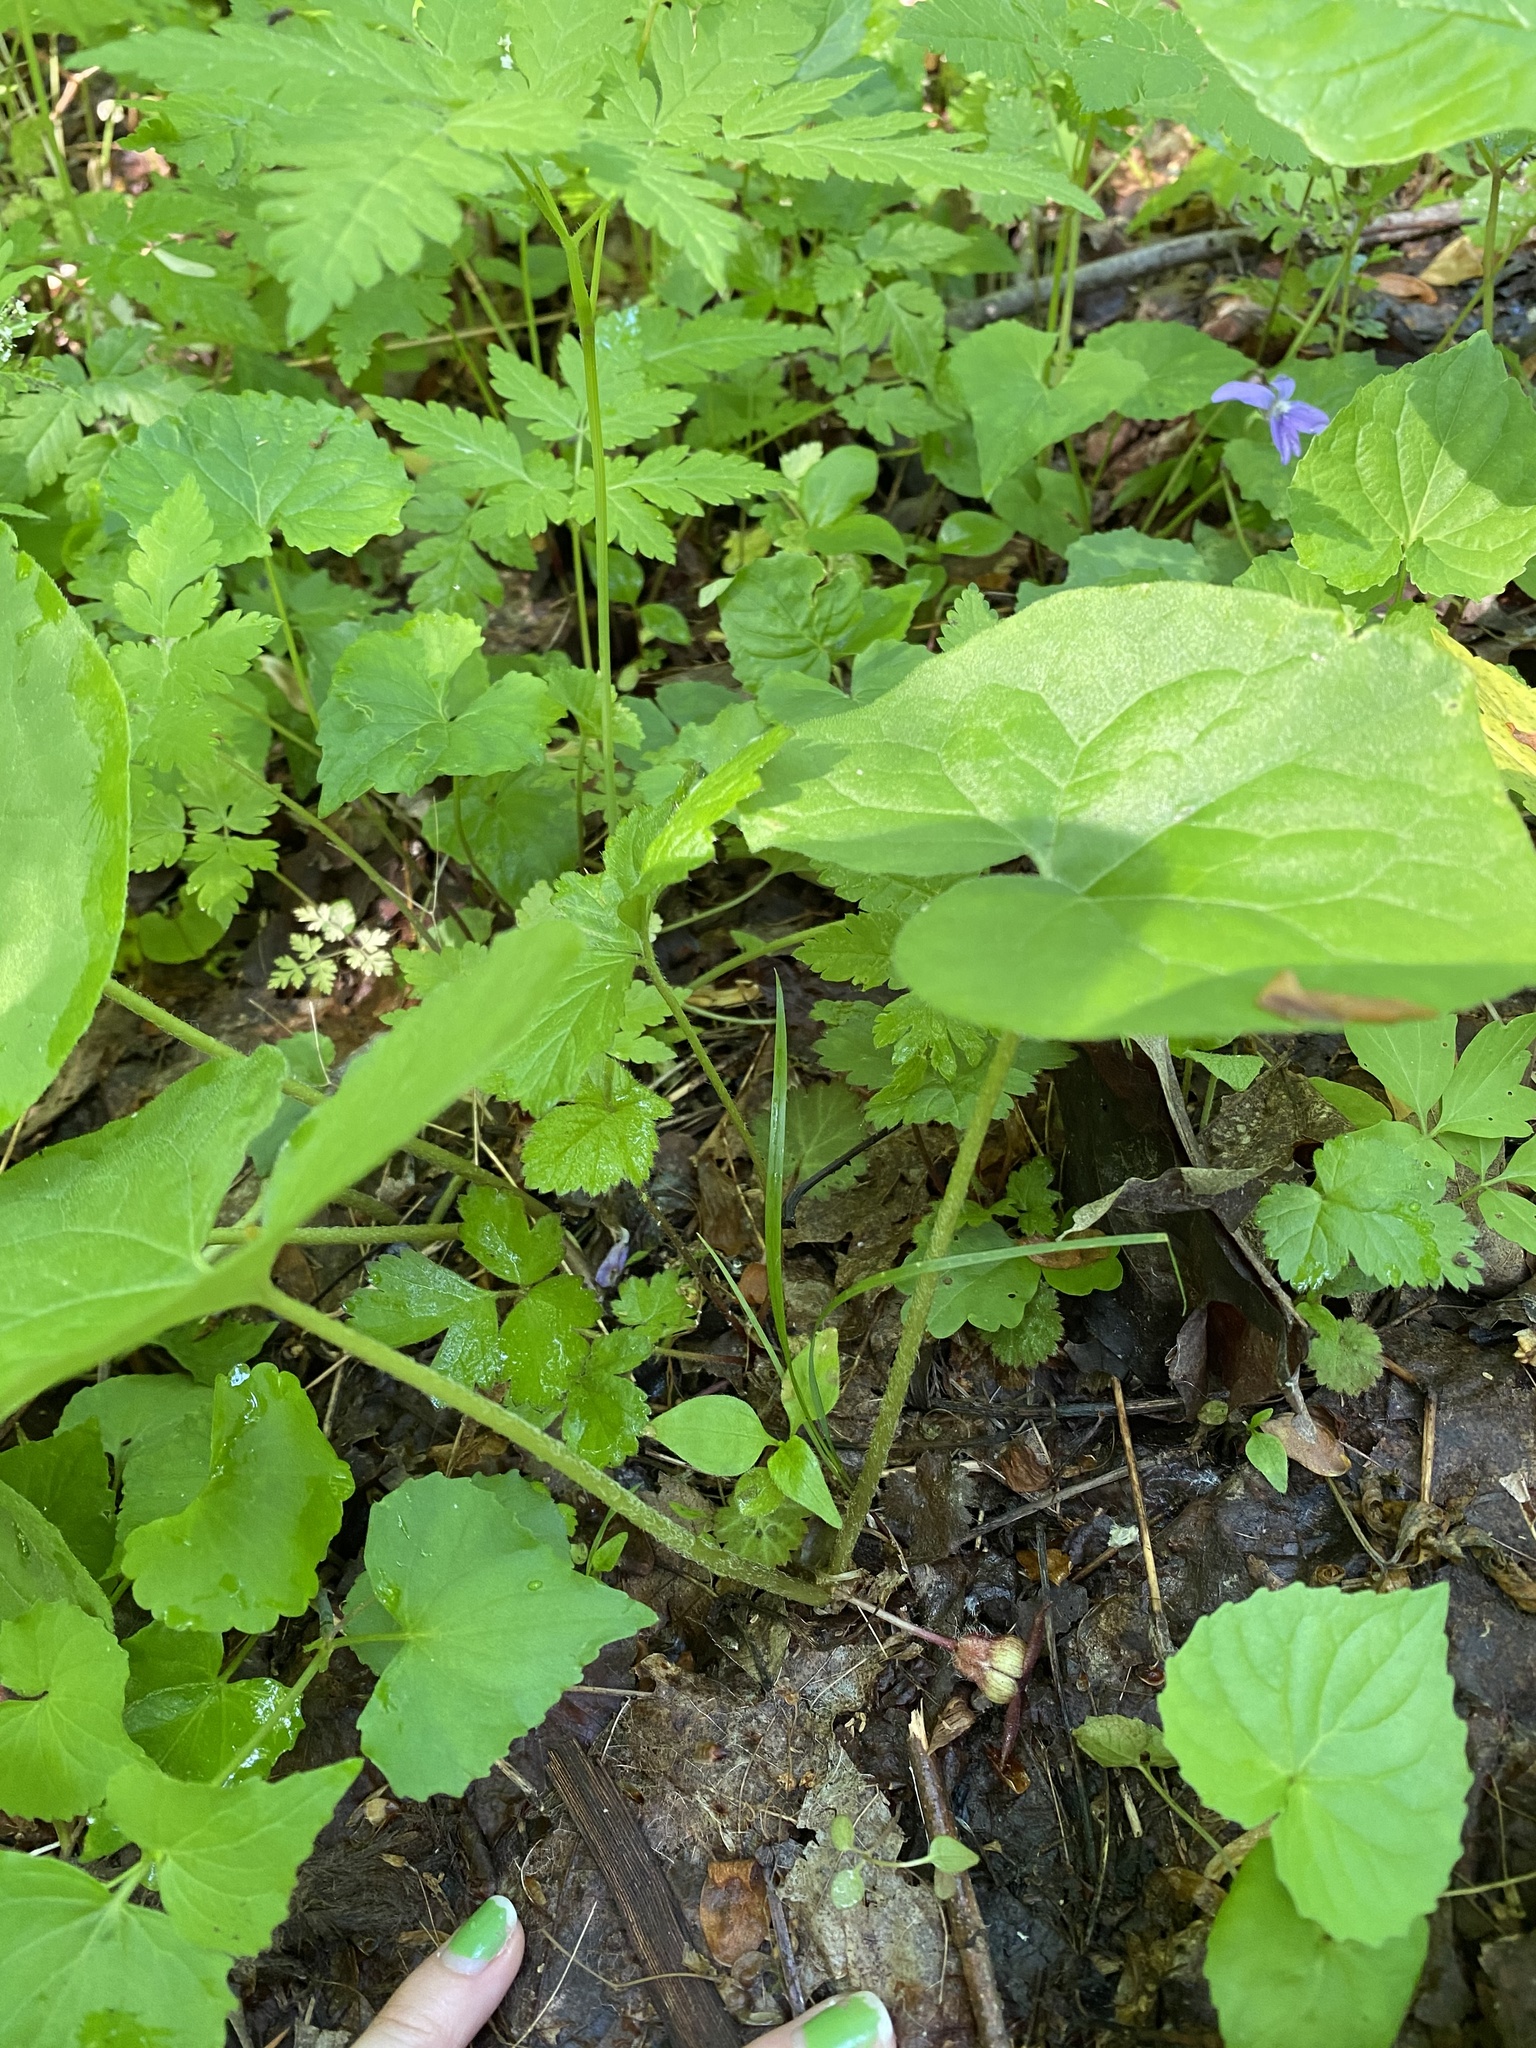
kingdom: Plantae
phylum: Tracheophyta
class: Magnoliopsida
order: Piperales
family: Aristolochiaceae
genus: Asarum
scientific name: Asarum canadense
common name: Wild ginger
